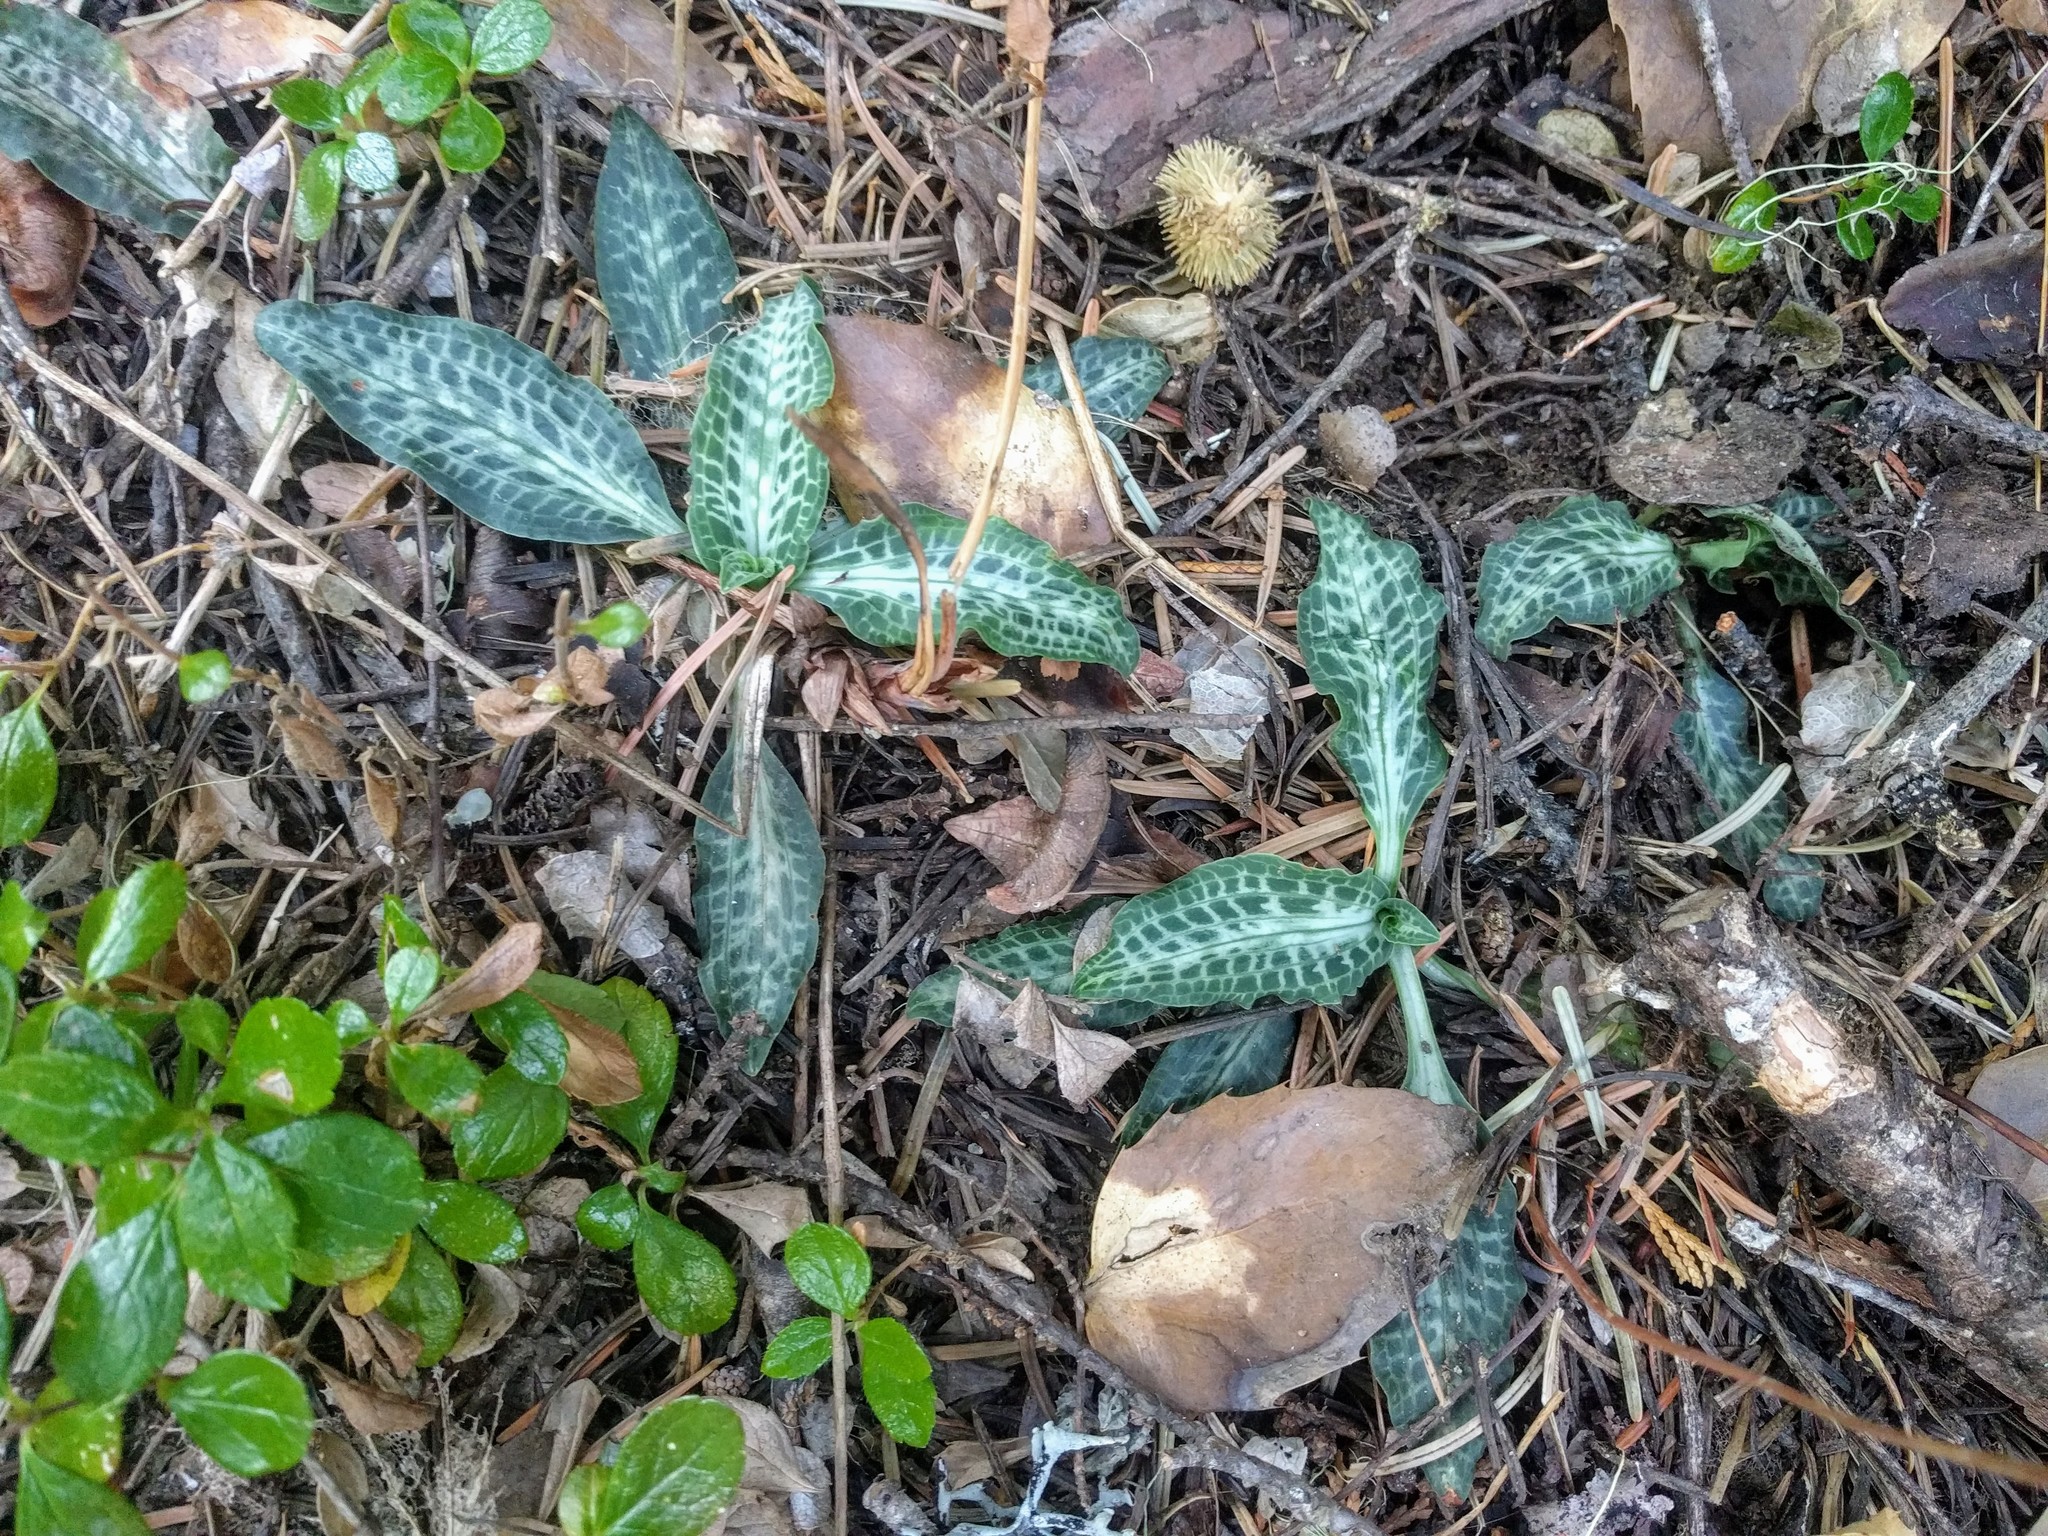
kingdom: Plantae
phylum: Tracheophyta
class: Liliopsida
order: Asparagales
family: Orchidaceae
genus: Goodyera
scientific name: Goodyera oblongifolia
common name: Giant rattlesnake-plantain
